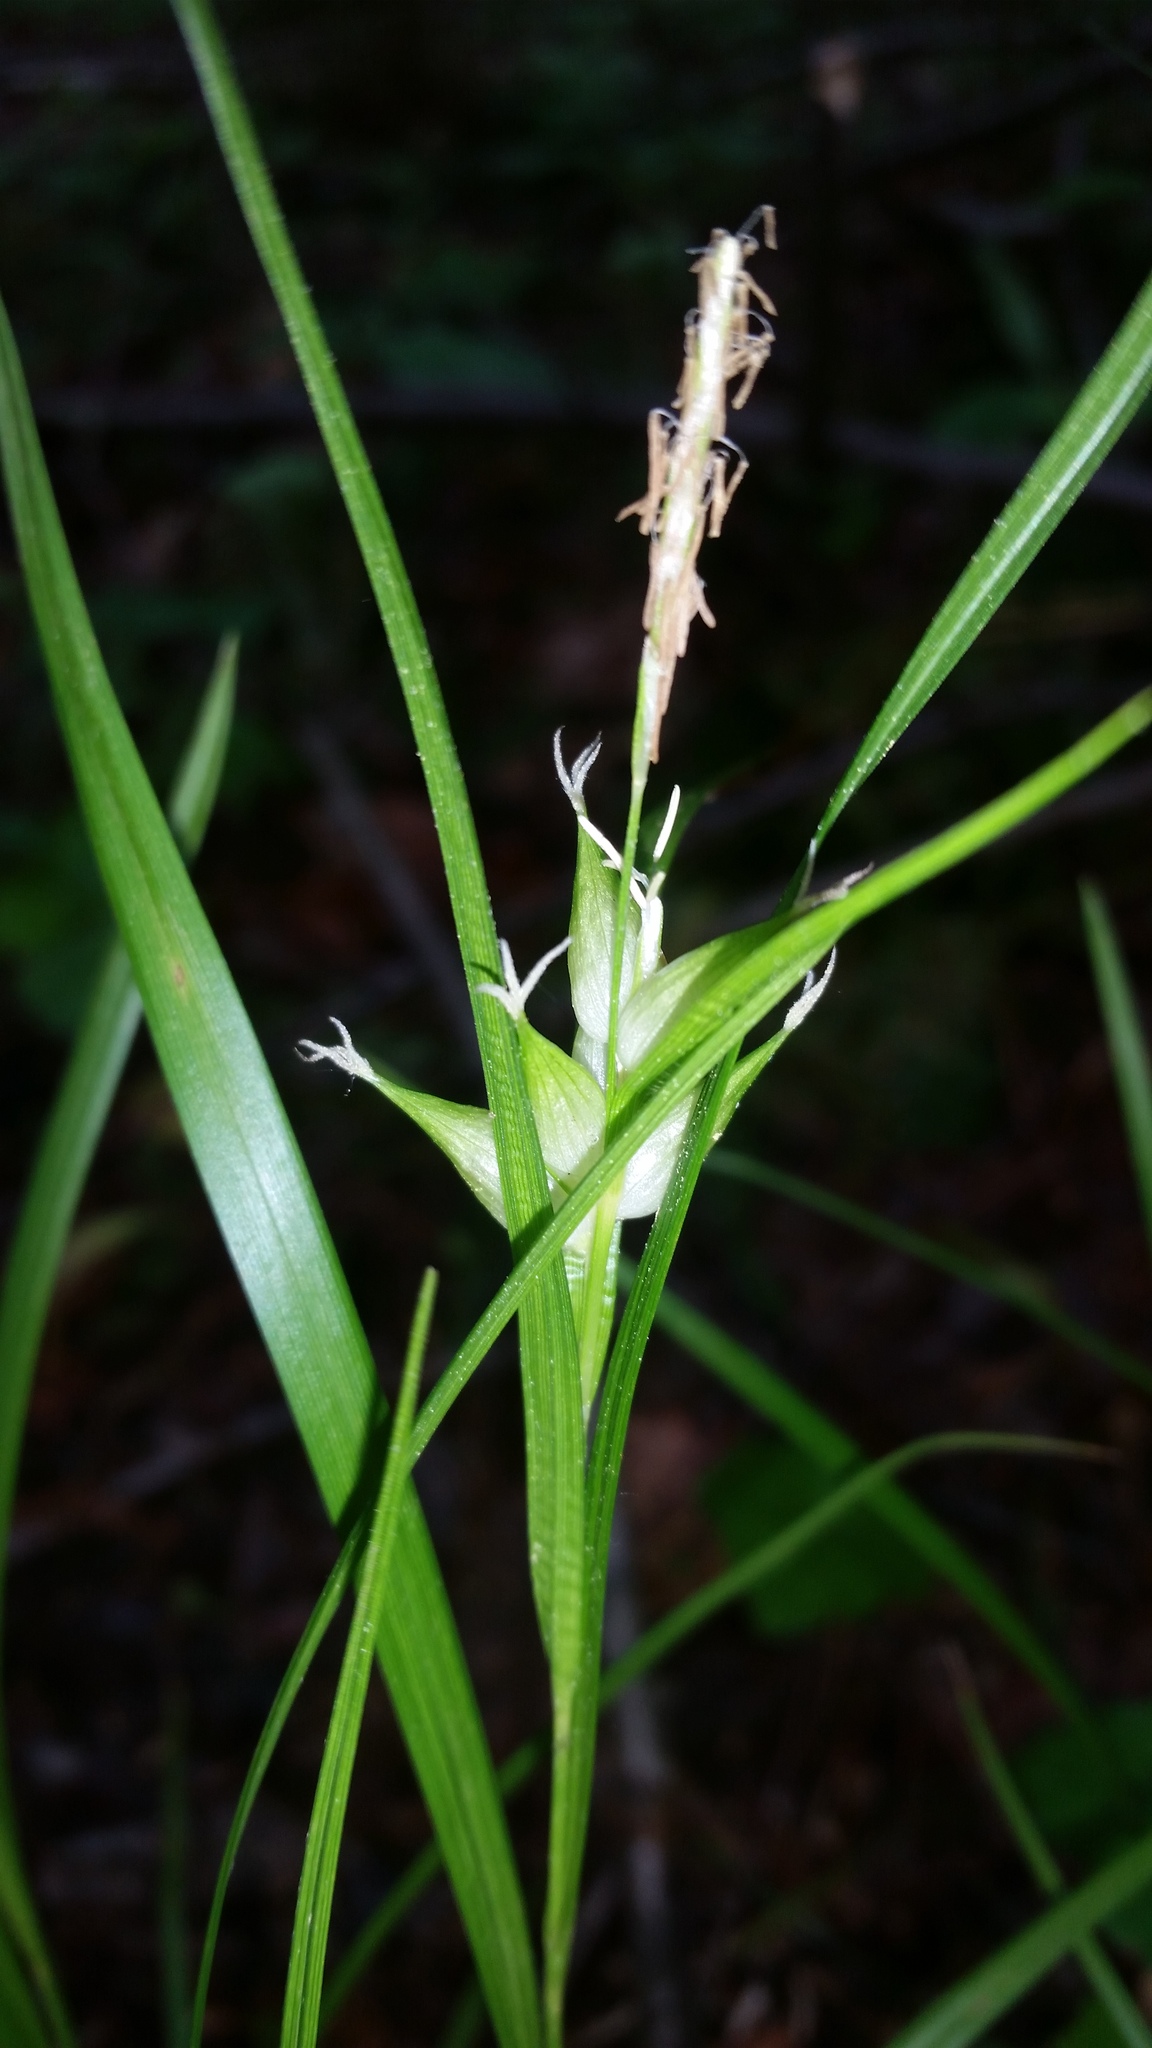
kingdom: Plantae
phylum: Tracheophyta
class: Liliopsida
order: Poales
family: Cyperaceae
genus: Carex
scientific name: Carex intumescens
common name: Greater bladder sedge
